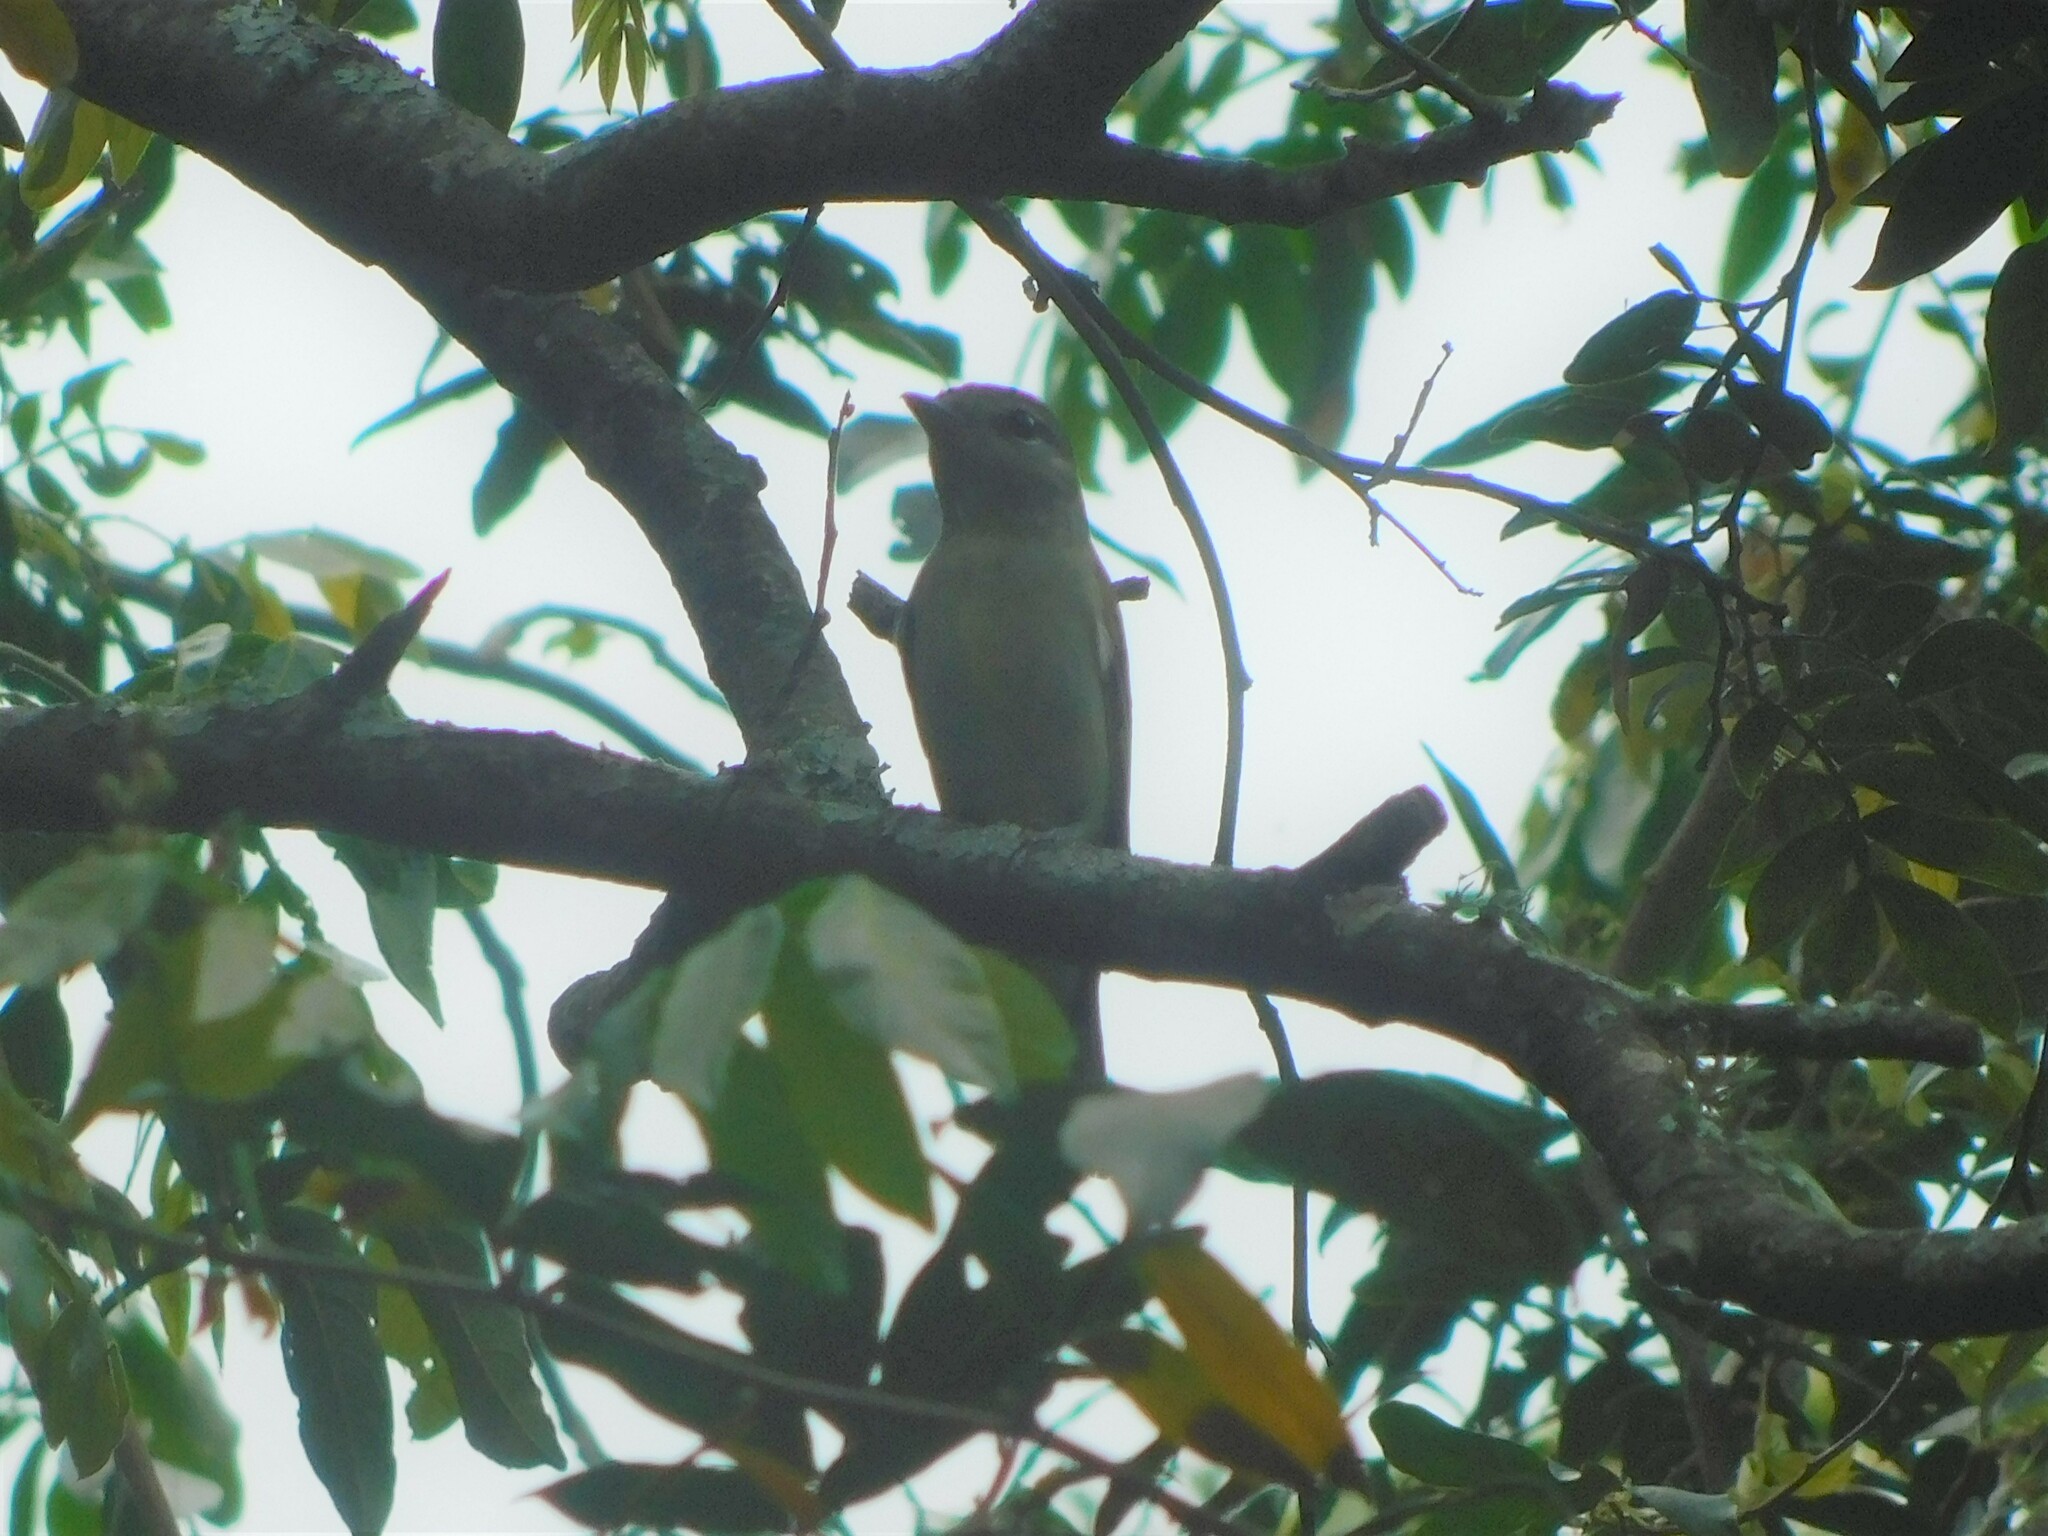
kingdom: Animalia
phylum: Chordata
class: Aves
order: Passeriformes
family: Cotingidae
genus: Pachyramphus
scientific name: Pachyramphus polychopterus
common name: White-winged becard
